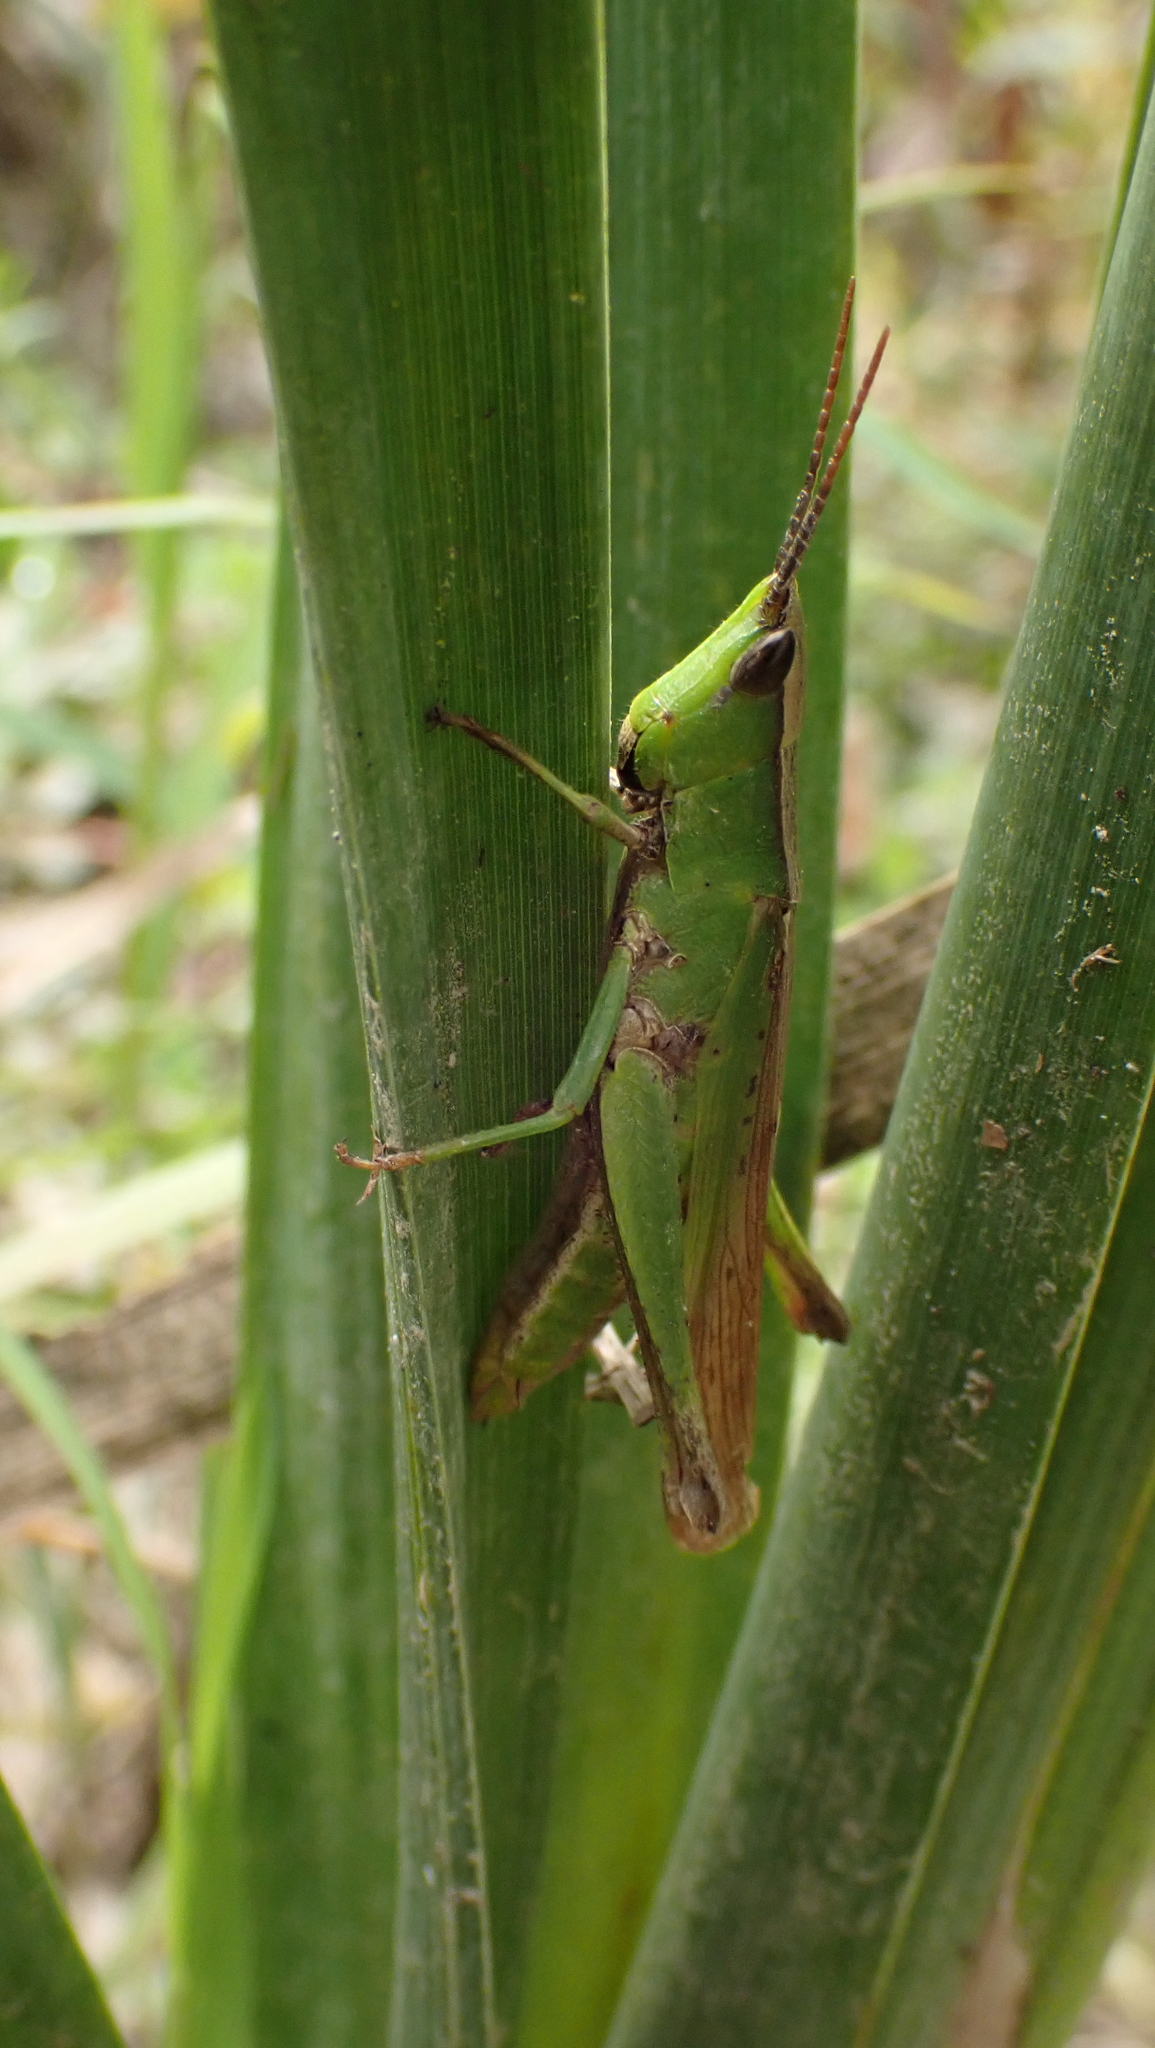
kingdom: Animalia
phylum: Arthropoda
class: Insecta
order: Orthoptera
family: Acrididae
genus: Metaleptea
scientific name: Metaleptea brevicornis
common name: Clipped-wing grasshopper
